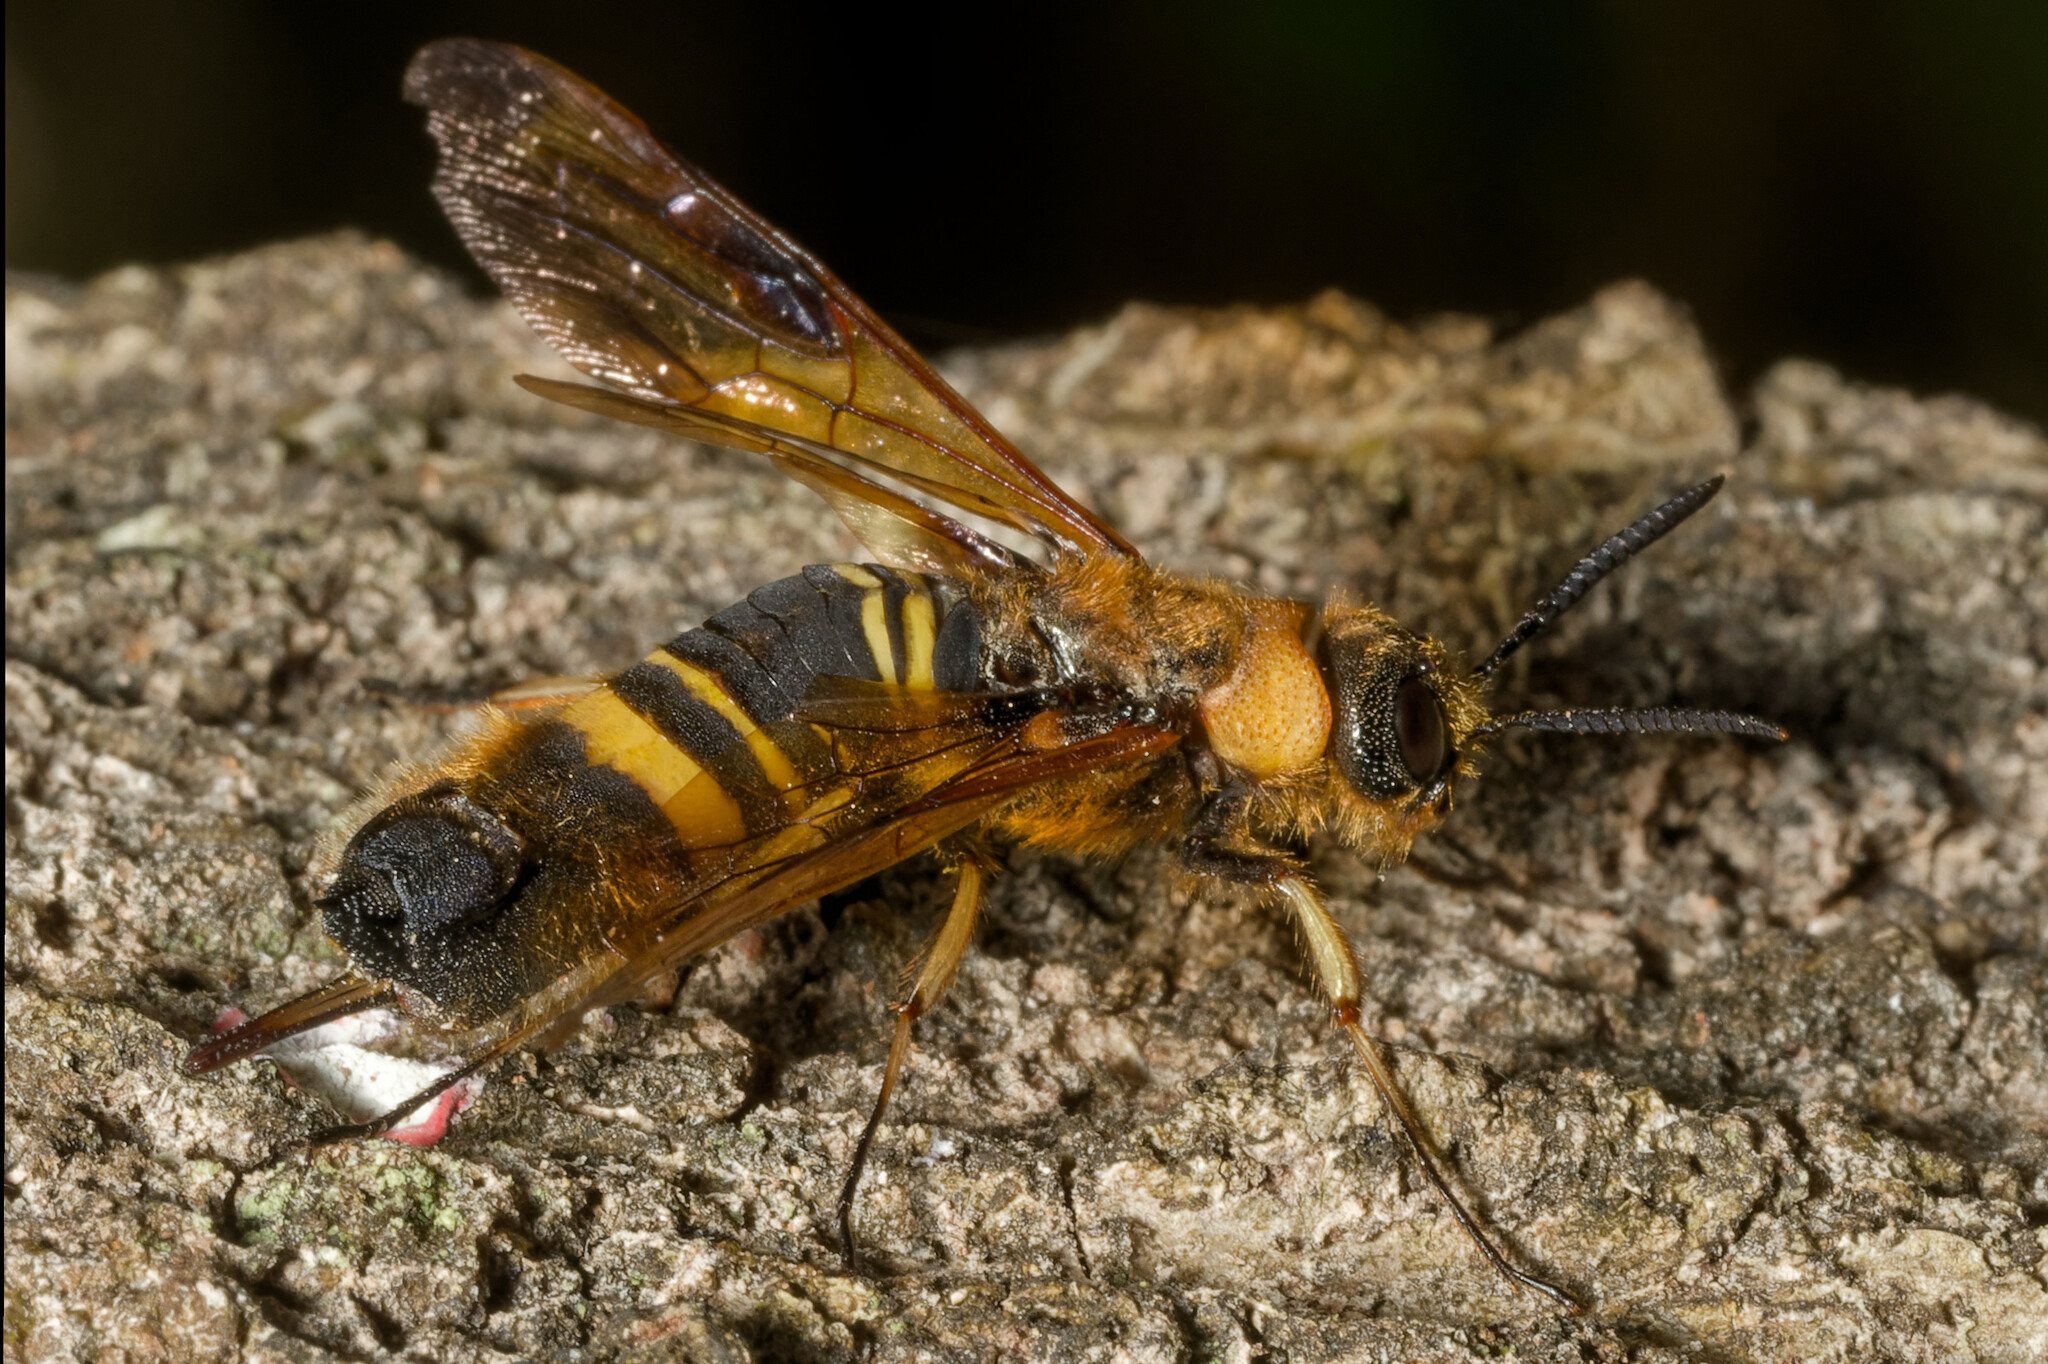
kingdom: Animalia
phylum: Arthropoda
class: Insecta
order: Hymenoptera
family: Siricidae
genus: Eriotremex
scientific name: Eriotremex formosanus
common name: Asian horntail
